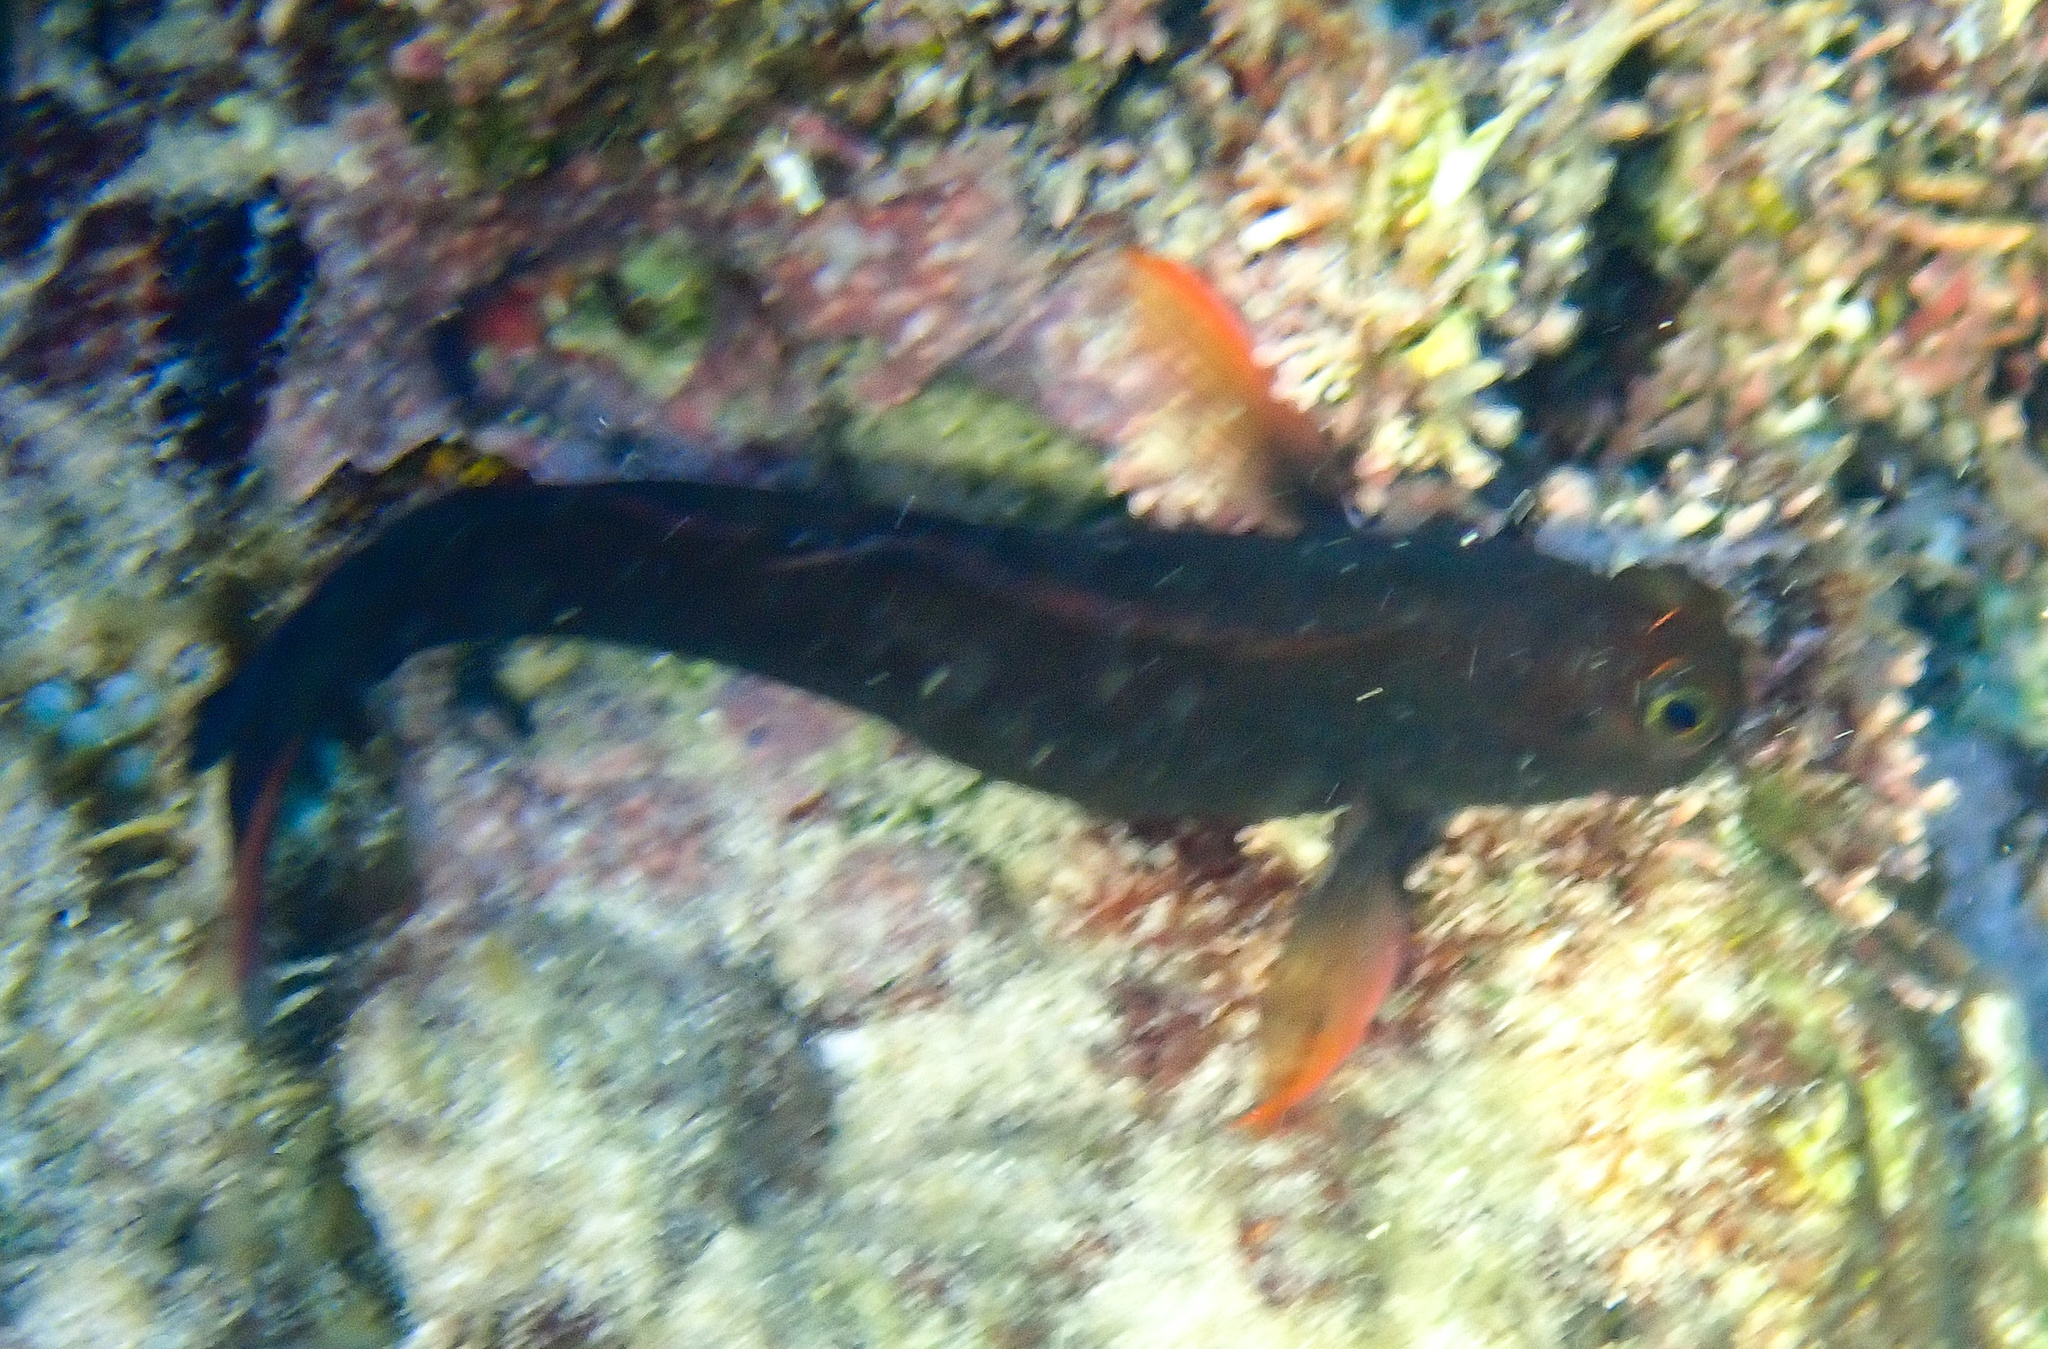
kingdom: Animalia
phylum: Chordata
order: Perciformes
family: Blenniidae
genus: Ophioblennius
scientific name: Ophioblennius macclurei
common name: Redlip blenny
